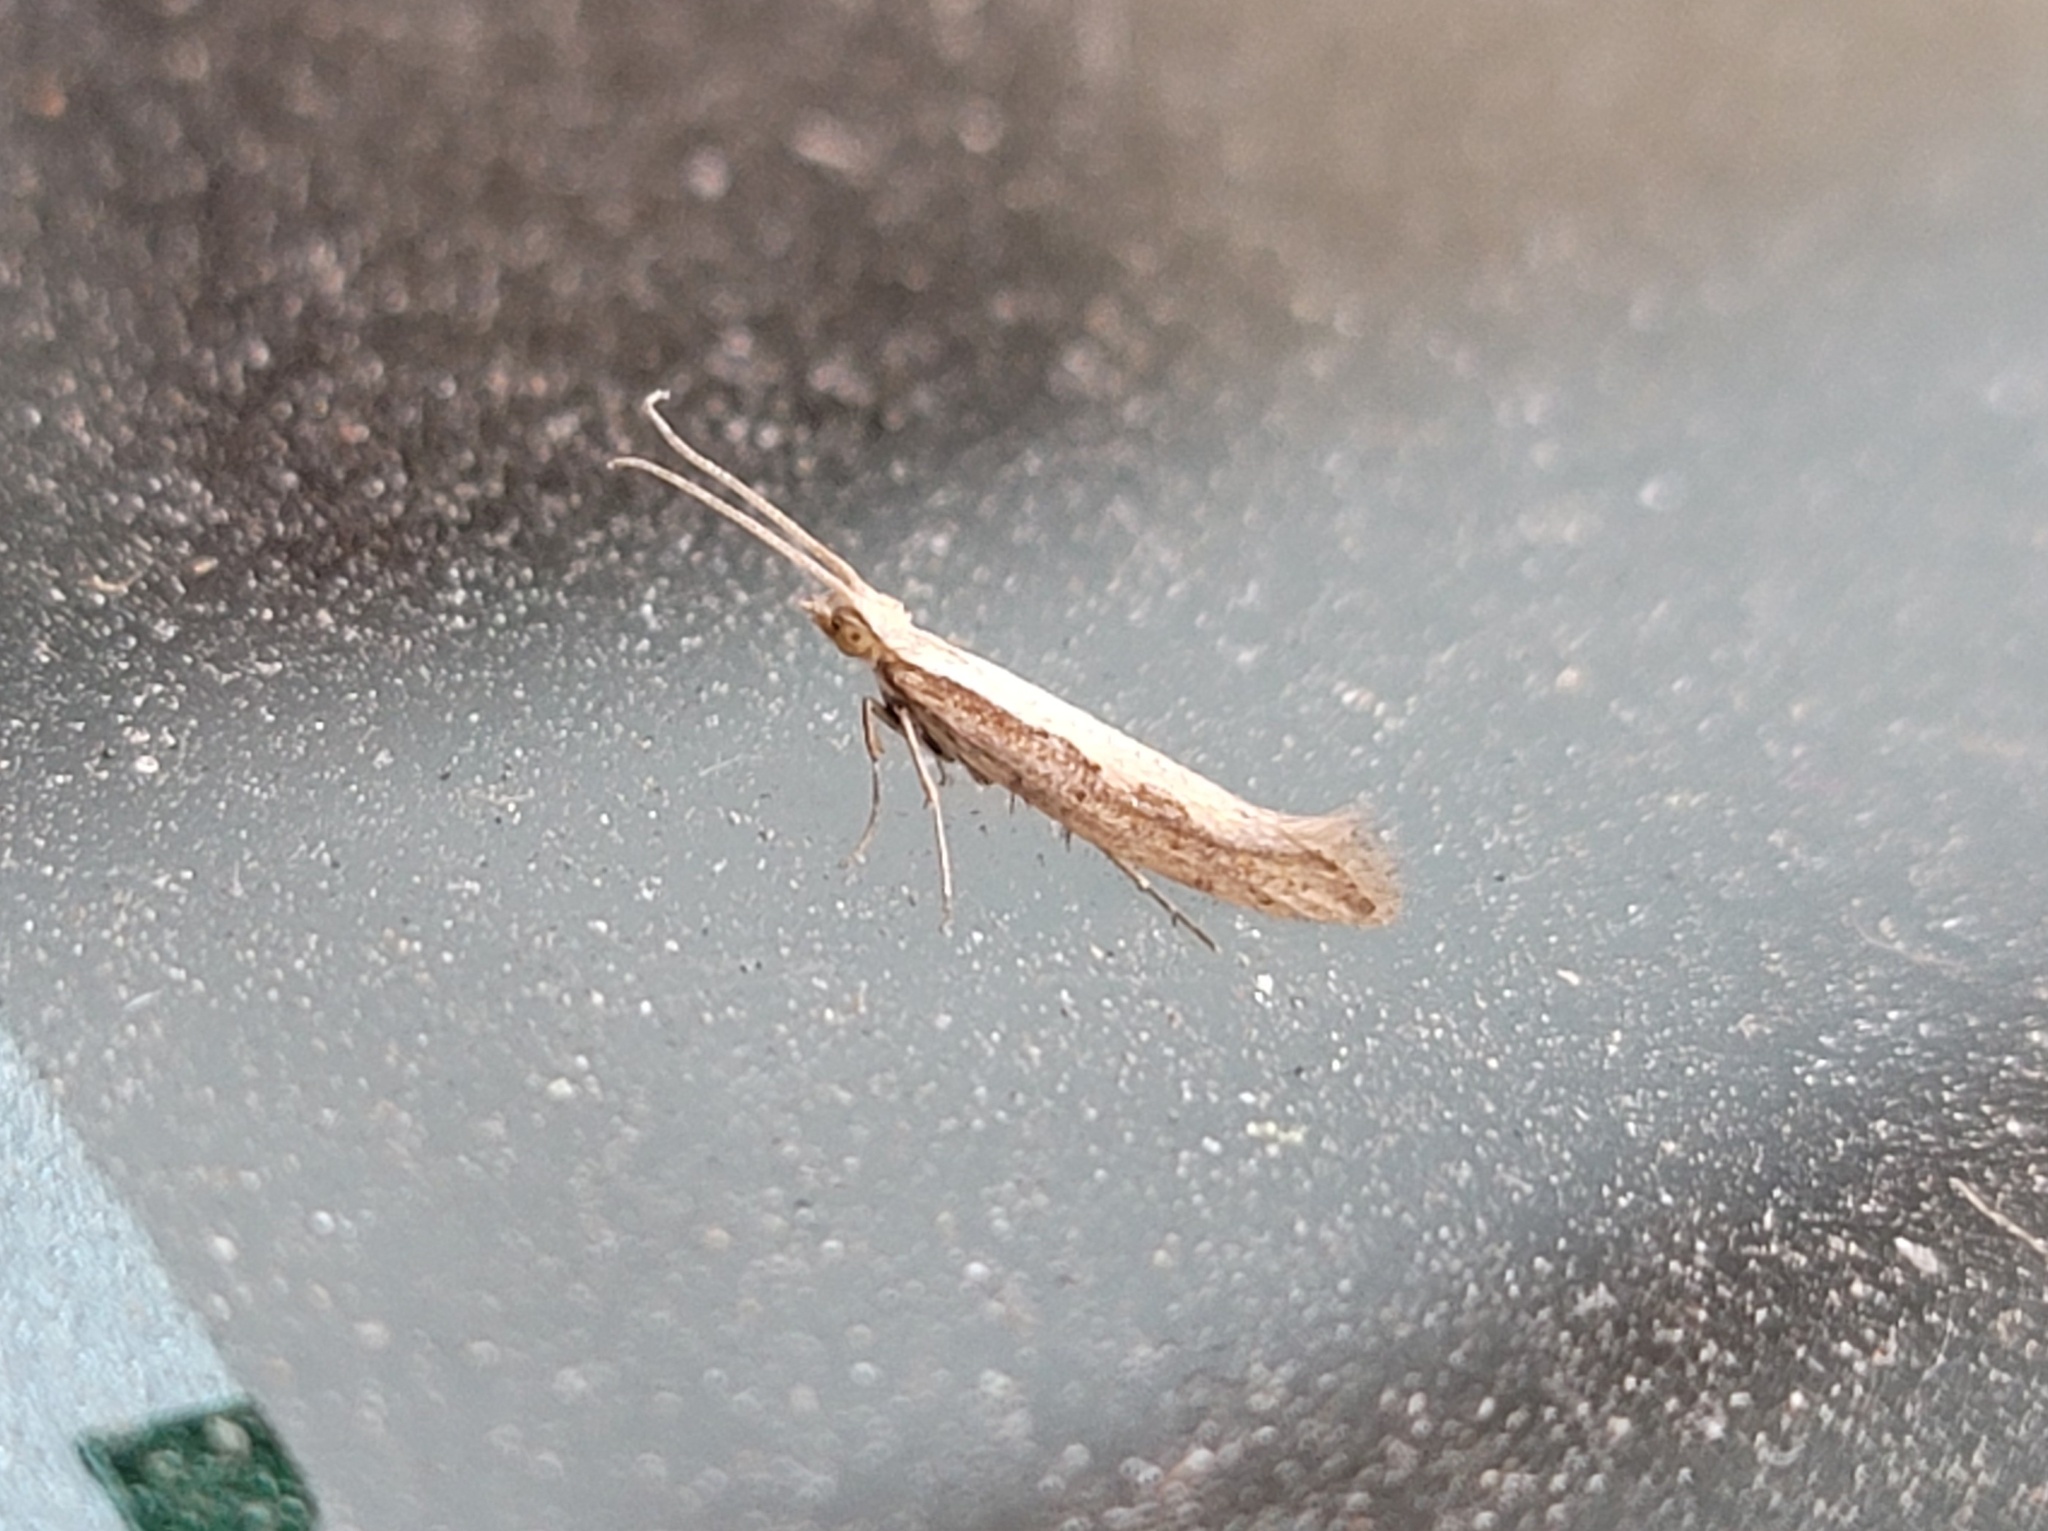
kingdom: Animalia
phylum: Arthropoda
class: Insecta
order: Lepidoptera
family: Plutellidae
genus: Plutella
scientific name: Plutella xylostella
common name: Diamond-back moth
